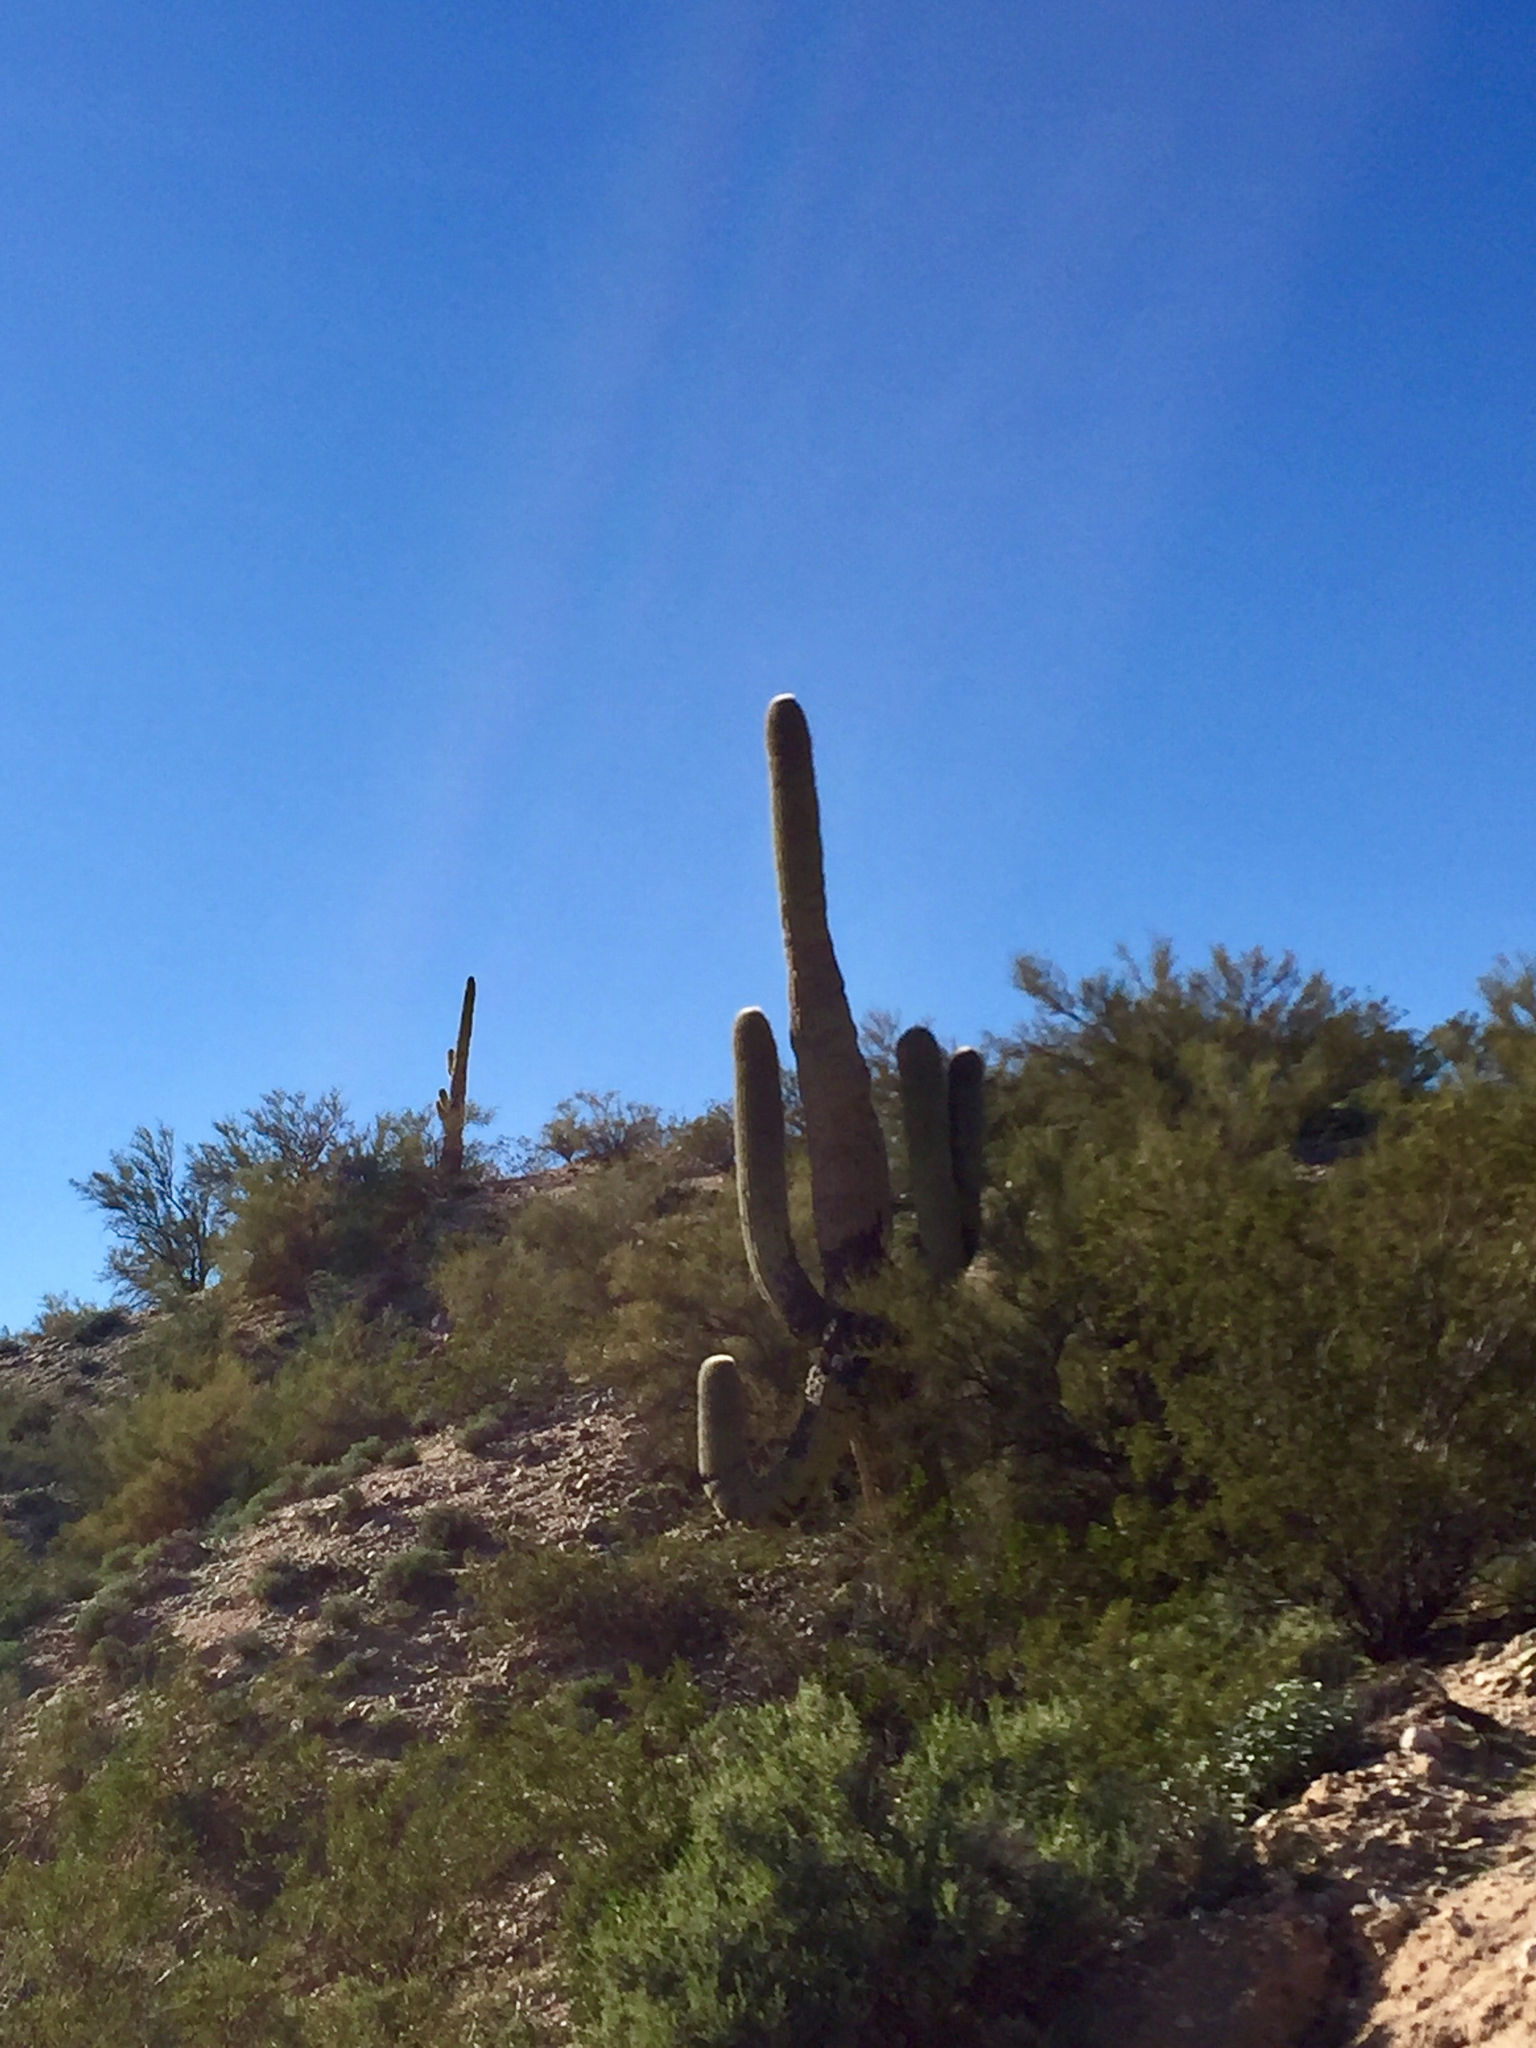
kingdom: Plantae
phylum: Tracheophyta
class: Magnoliopsida
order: Caryophyllales
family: Cactaceae
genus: Carnegiea
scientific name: Carnegiea gigantea
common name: Saguaro
